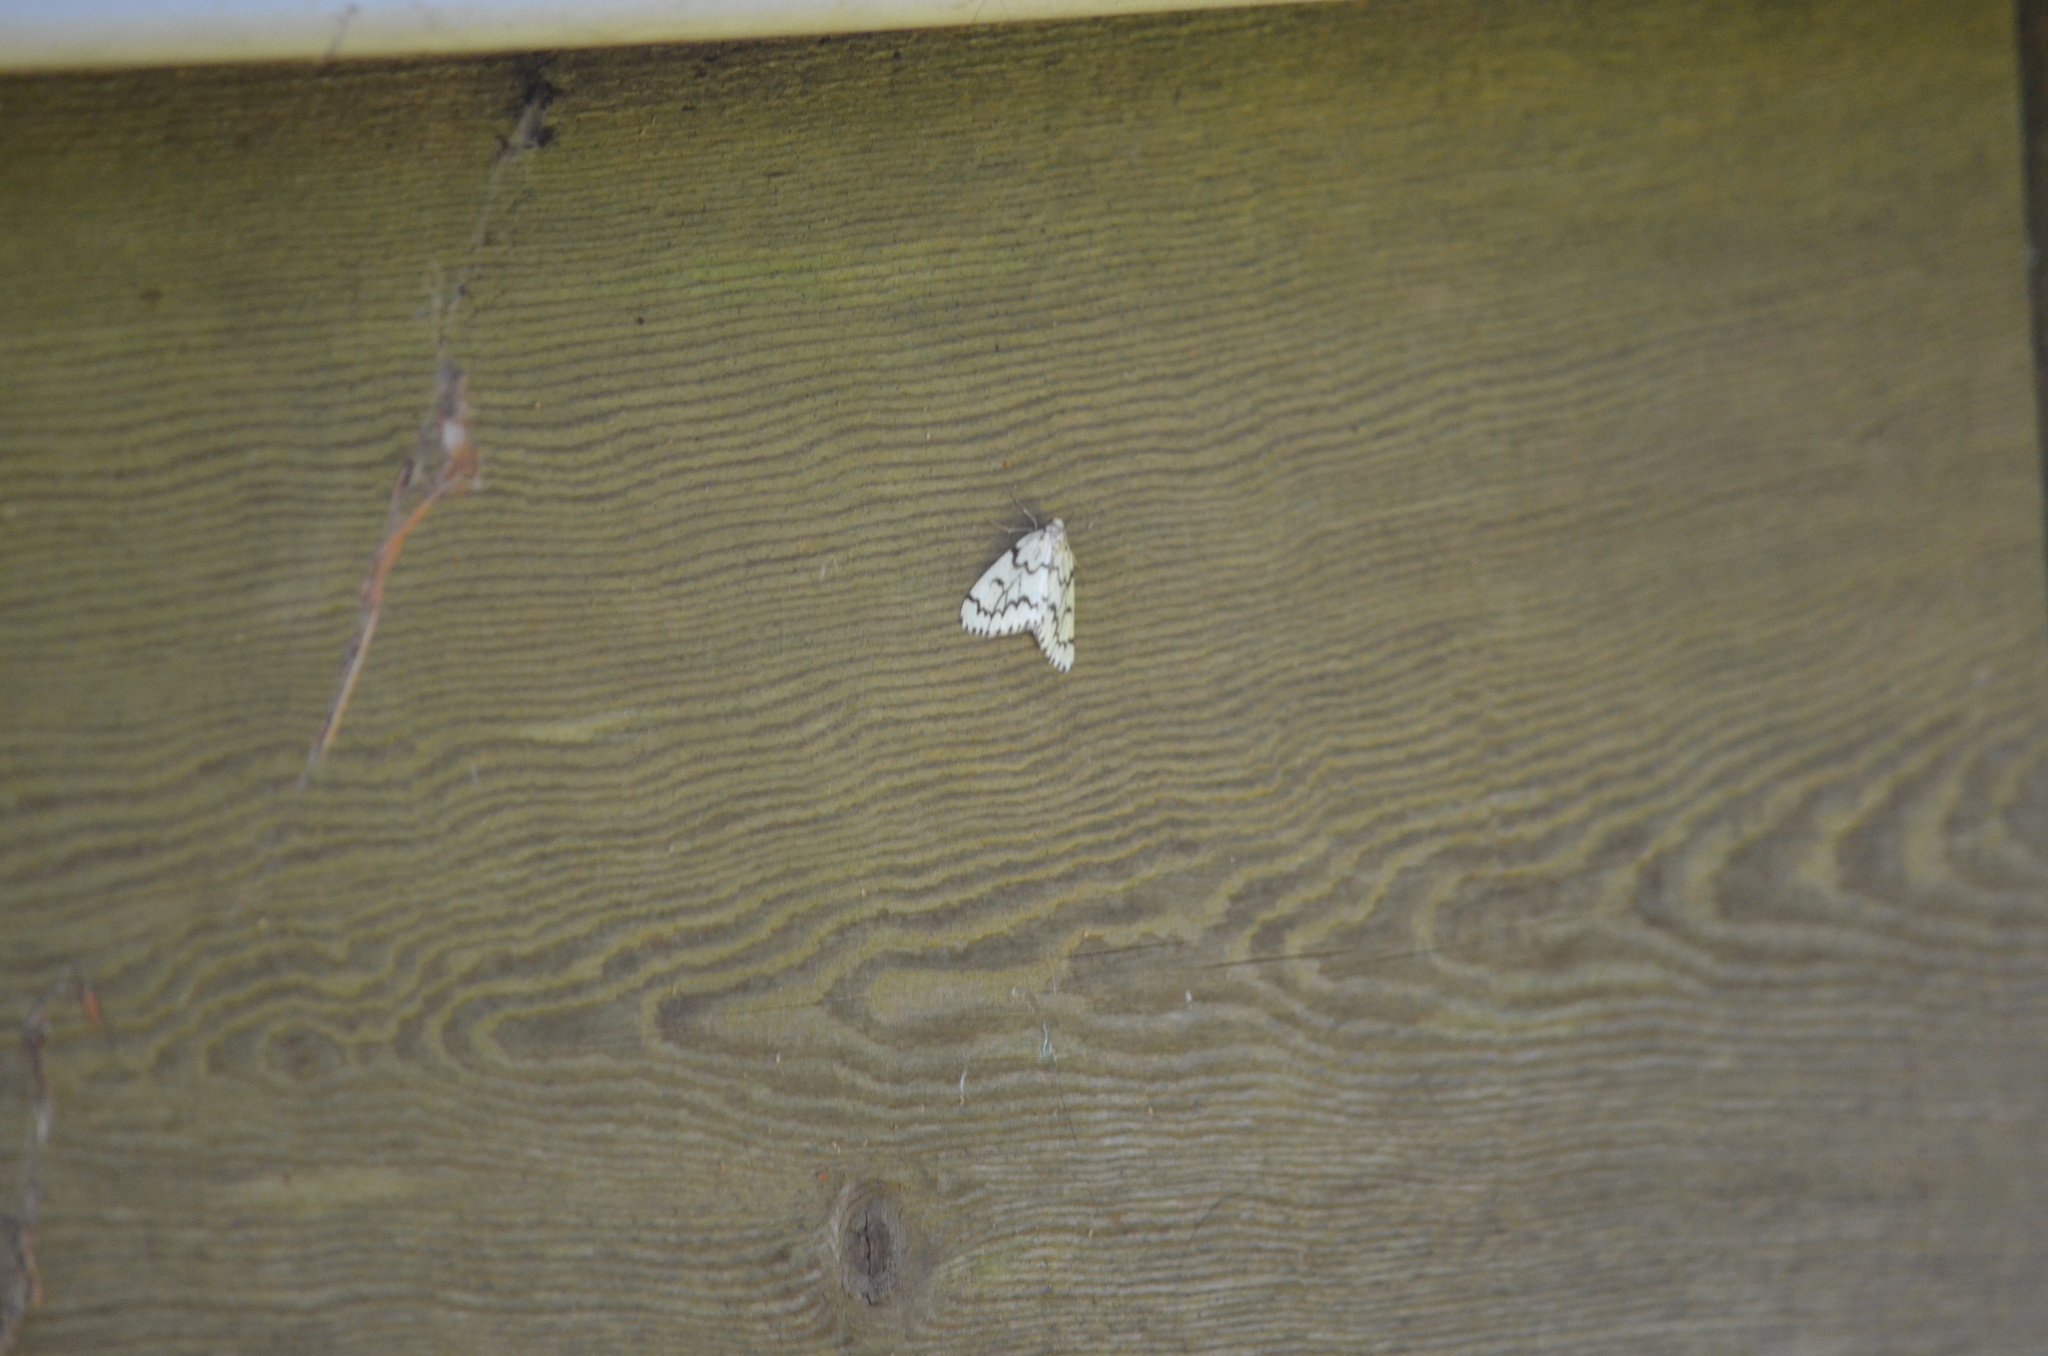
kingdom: Animalia
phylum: Arthropoda
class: Insecta
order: Lepidoptera
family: Geometridae
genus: Nepytia
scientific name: Nepytia phantasmaria
